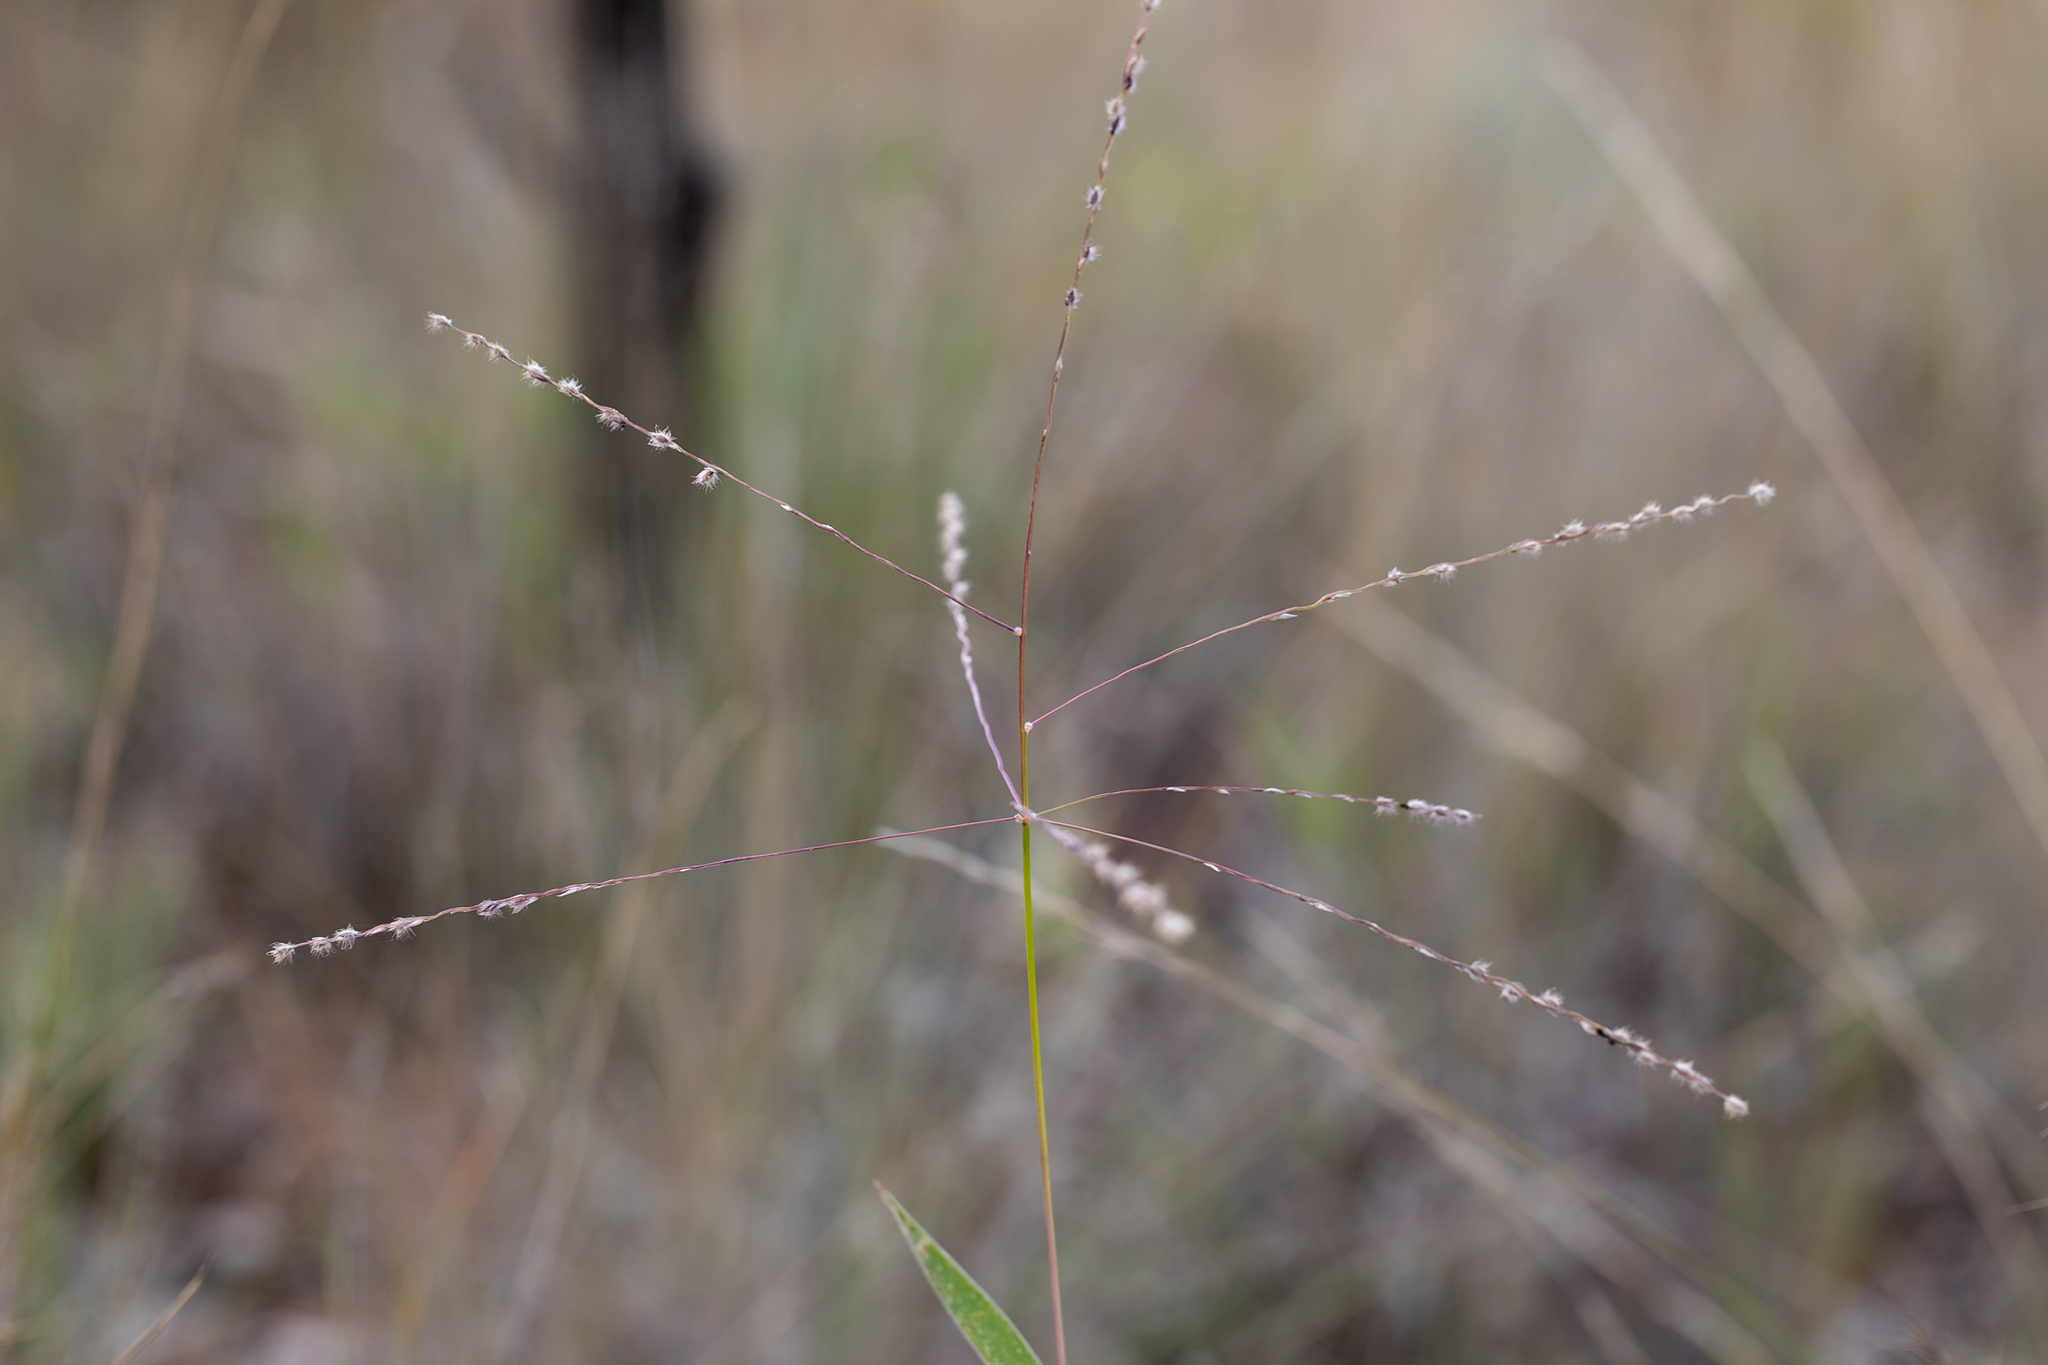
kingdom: Plantae
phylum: Tracheophyta
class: Liliopsida
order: Poales
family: Poaceae
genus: Digitaria
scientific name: Digitaria ammophila
